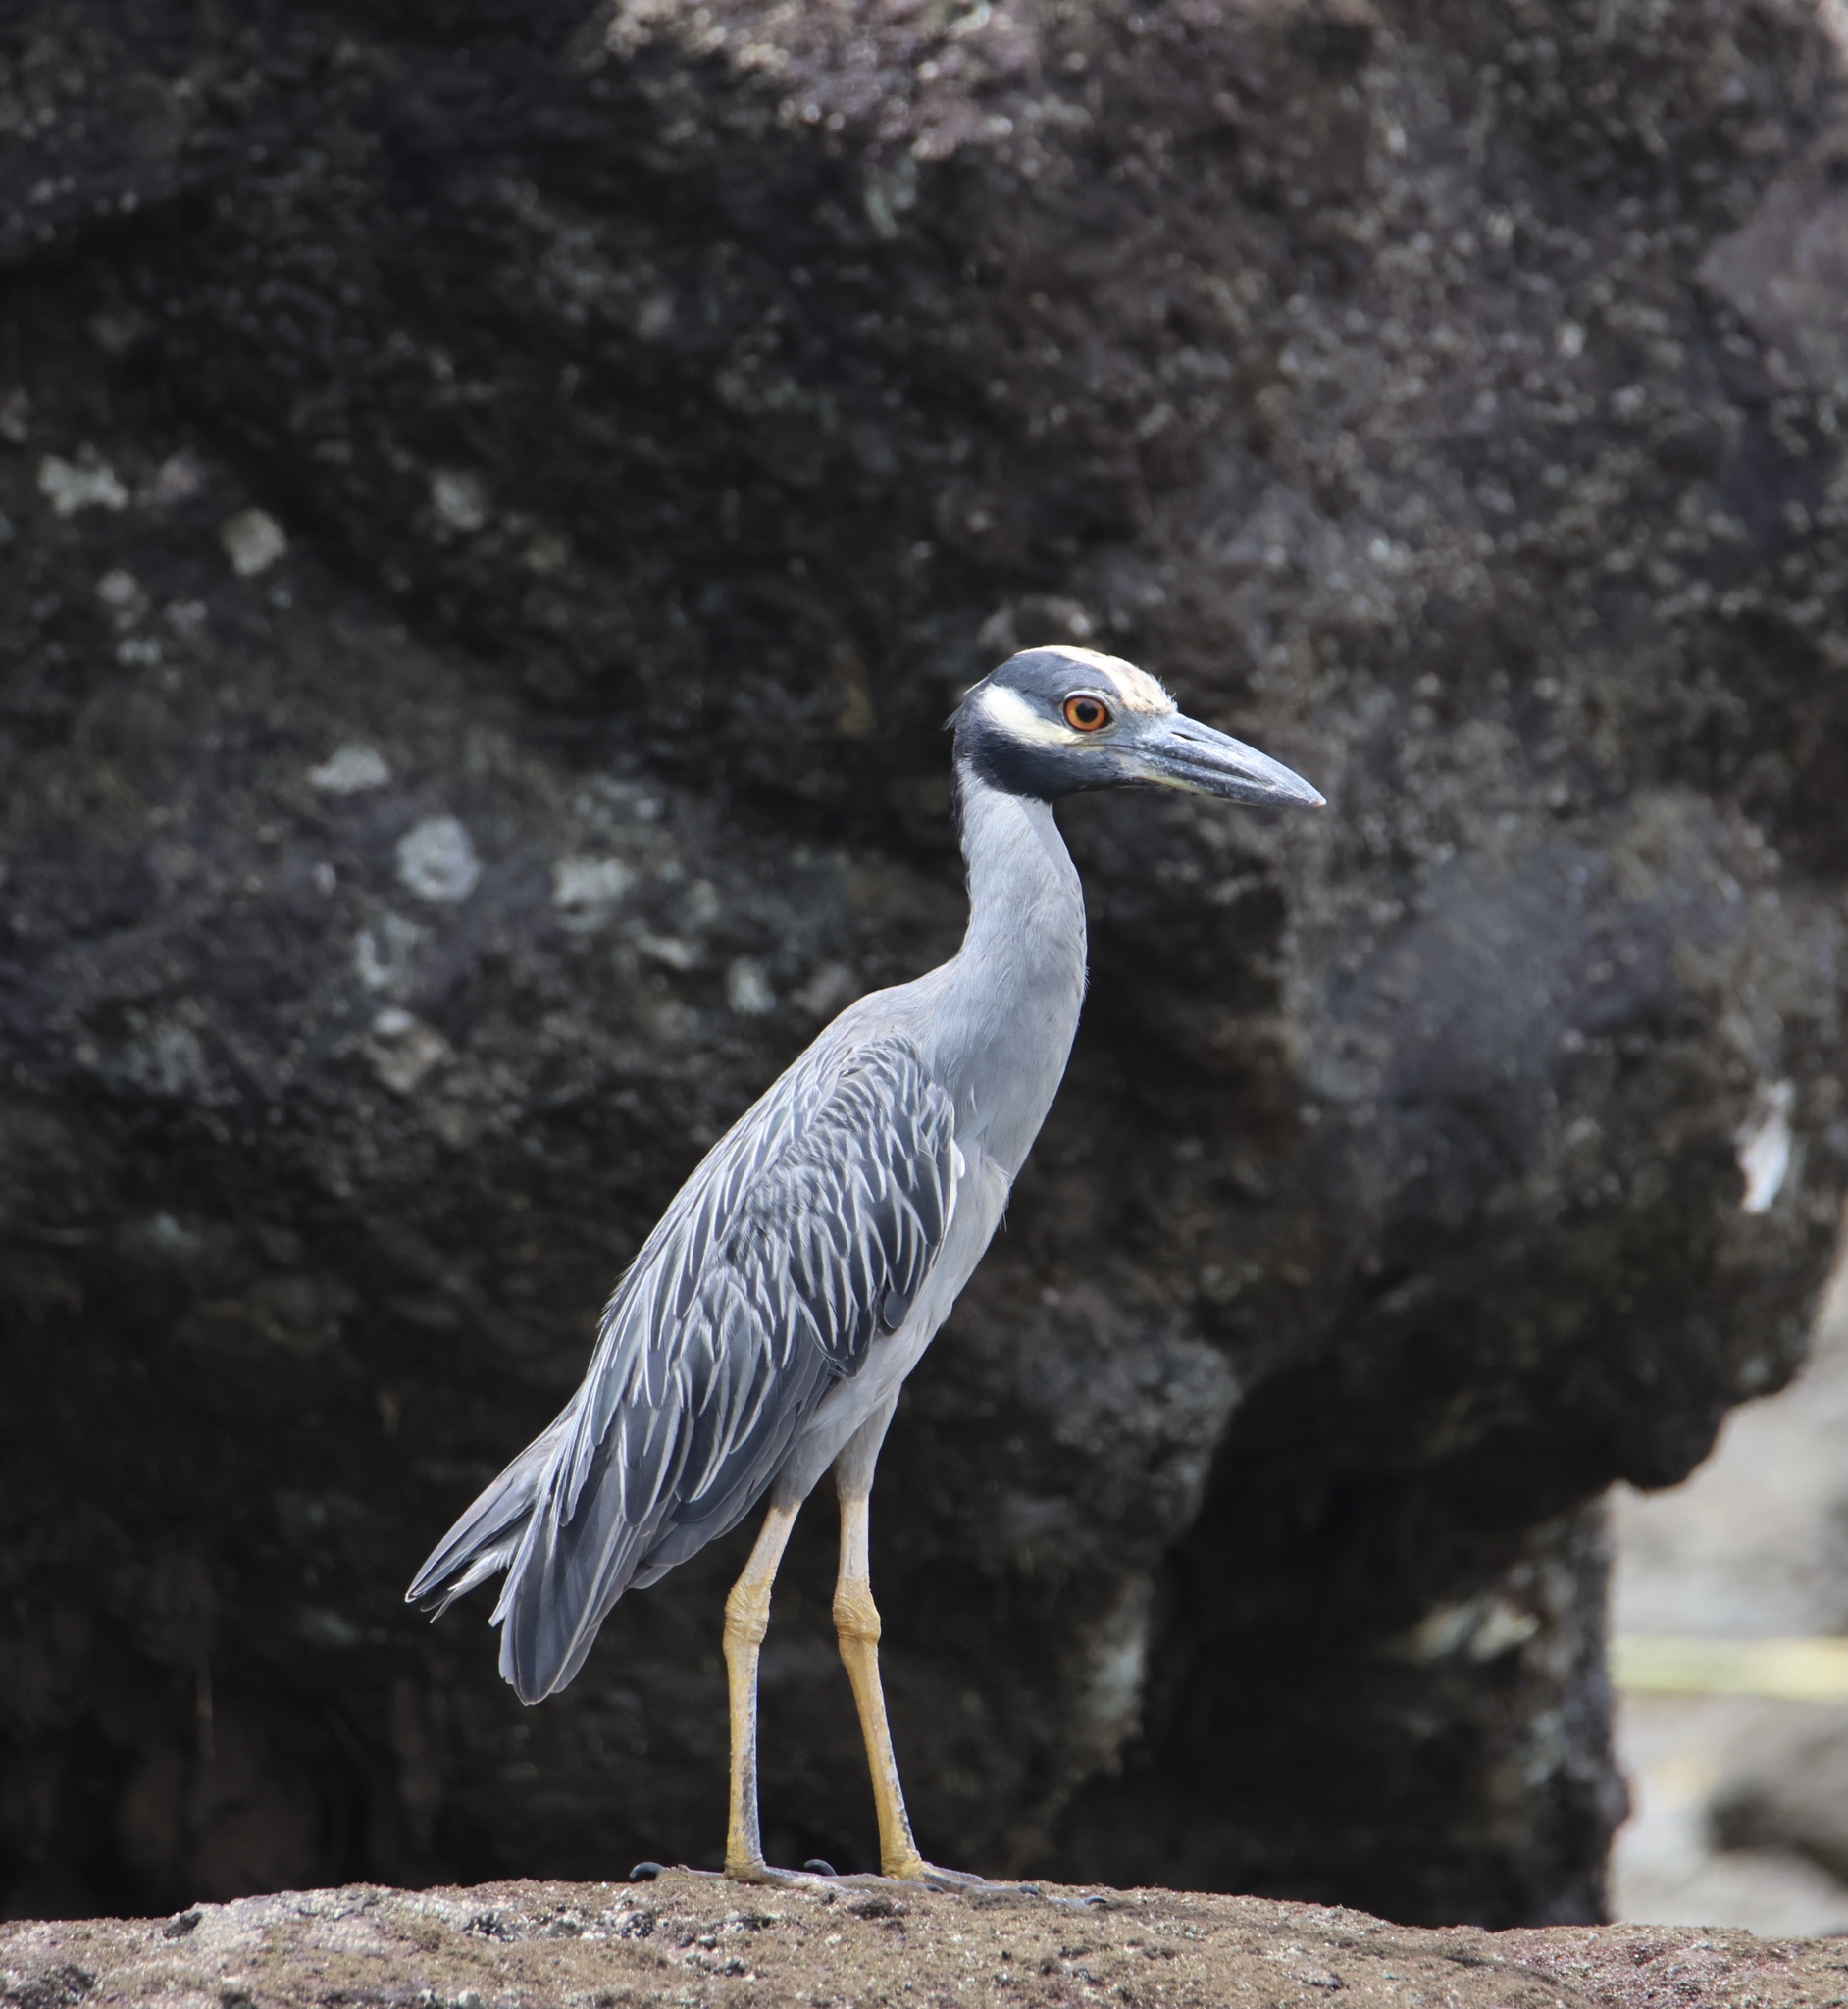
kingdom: Animalia
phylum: Chordata
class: Aves
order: Pelecaniformes
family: Ardeidae
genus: Nyctanassa
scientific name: Nyctanassa violacea
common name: Yellow-crowned night heron
